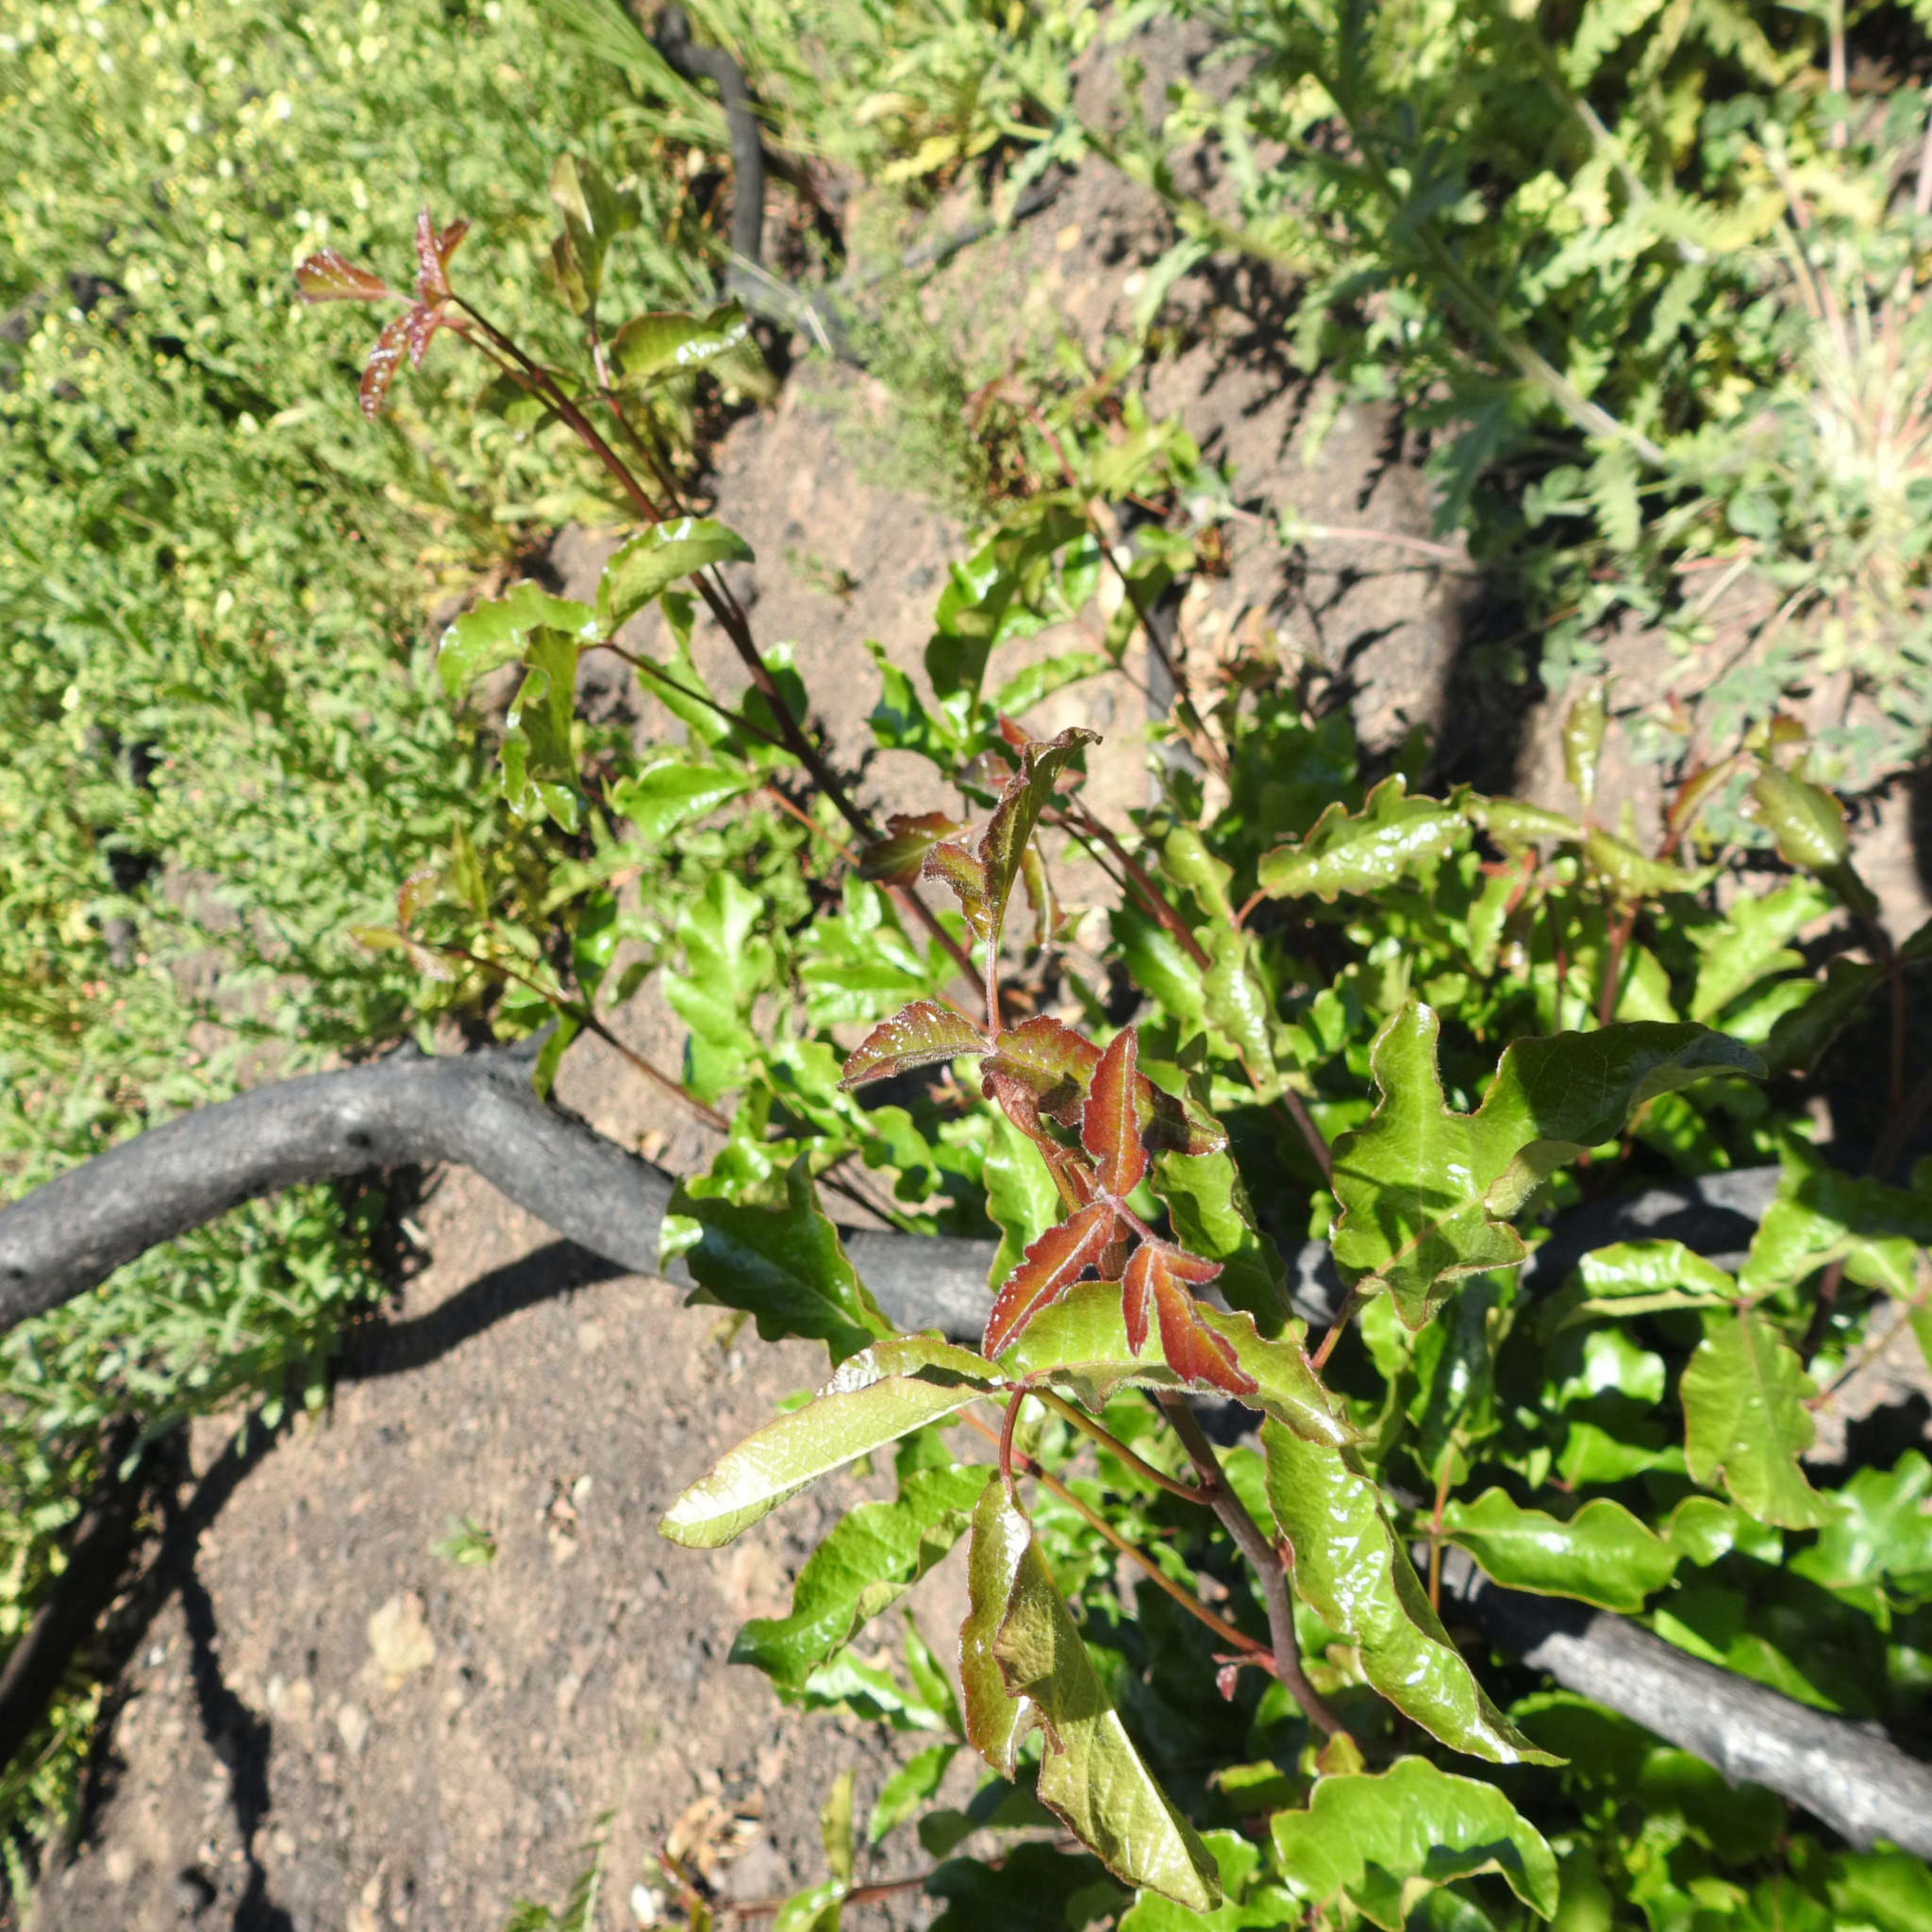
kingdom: Plantae
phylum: Tracheophyta
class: Magnoliopsida
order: Sapindales
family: Anacardiaceae
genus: Toxicodendron
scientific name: Toxicodendron diversilobum
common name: Pacific poison-oak
